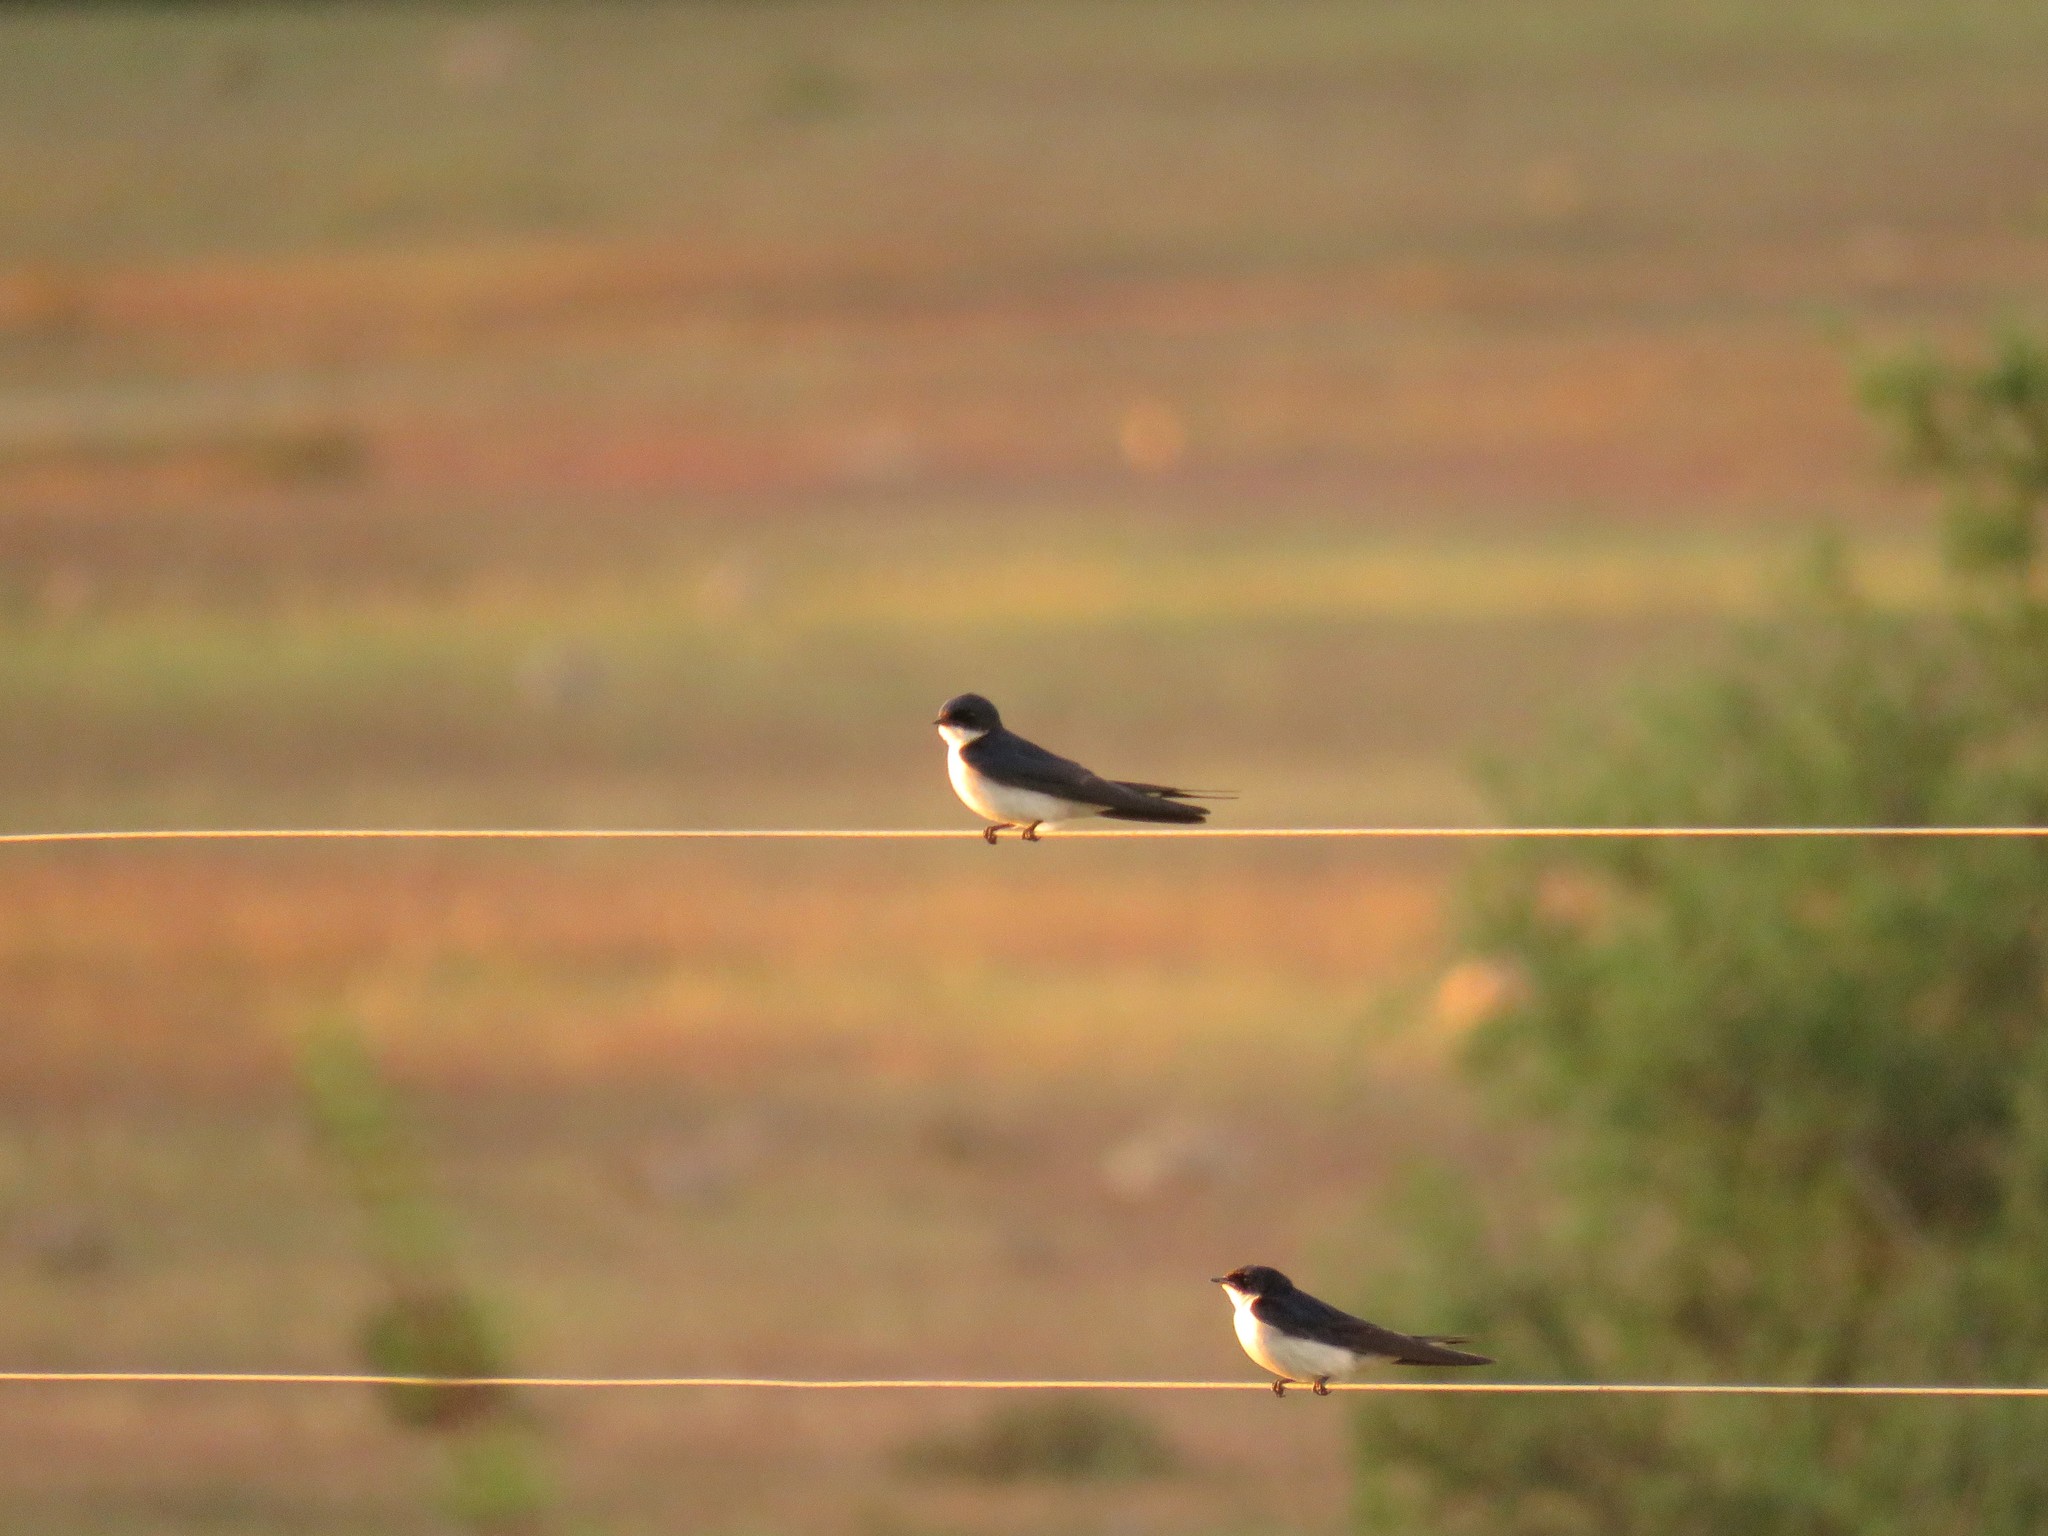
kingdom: Animalia
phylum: Chordata
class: Aves
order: Passeriformes
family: Hirundinidae
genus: Hirundo
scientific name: Hirundo dimidiata
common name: Pearl-breasted swallow
